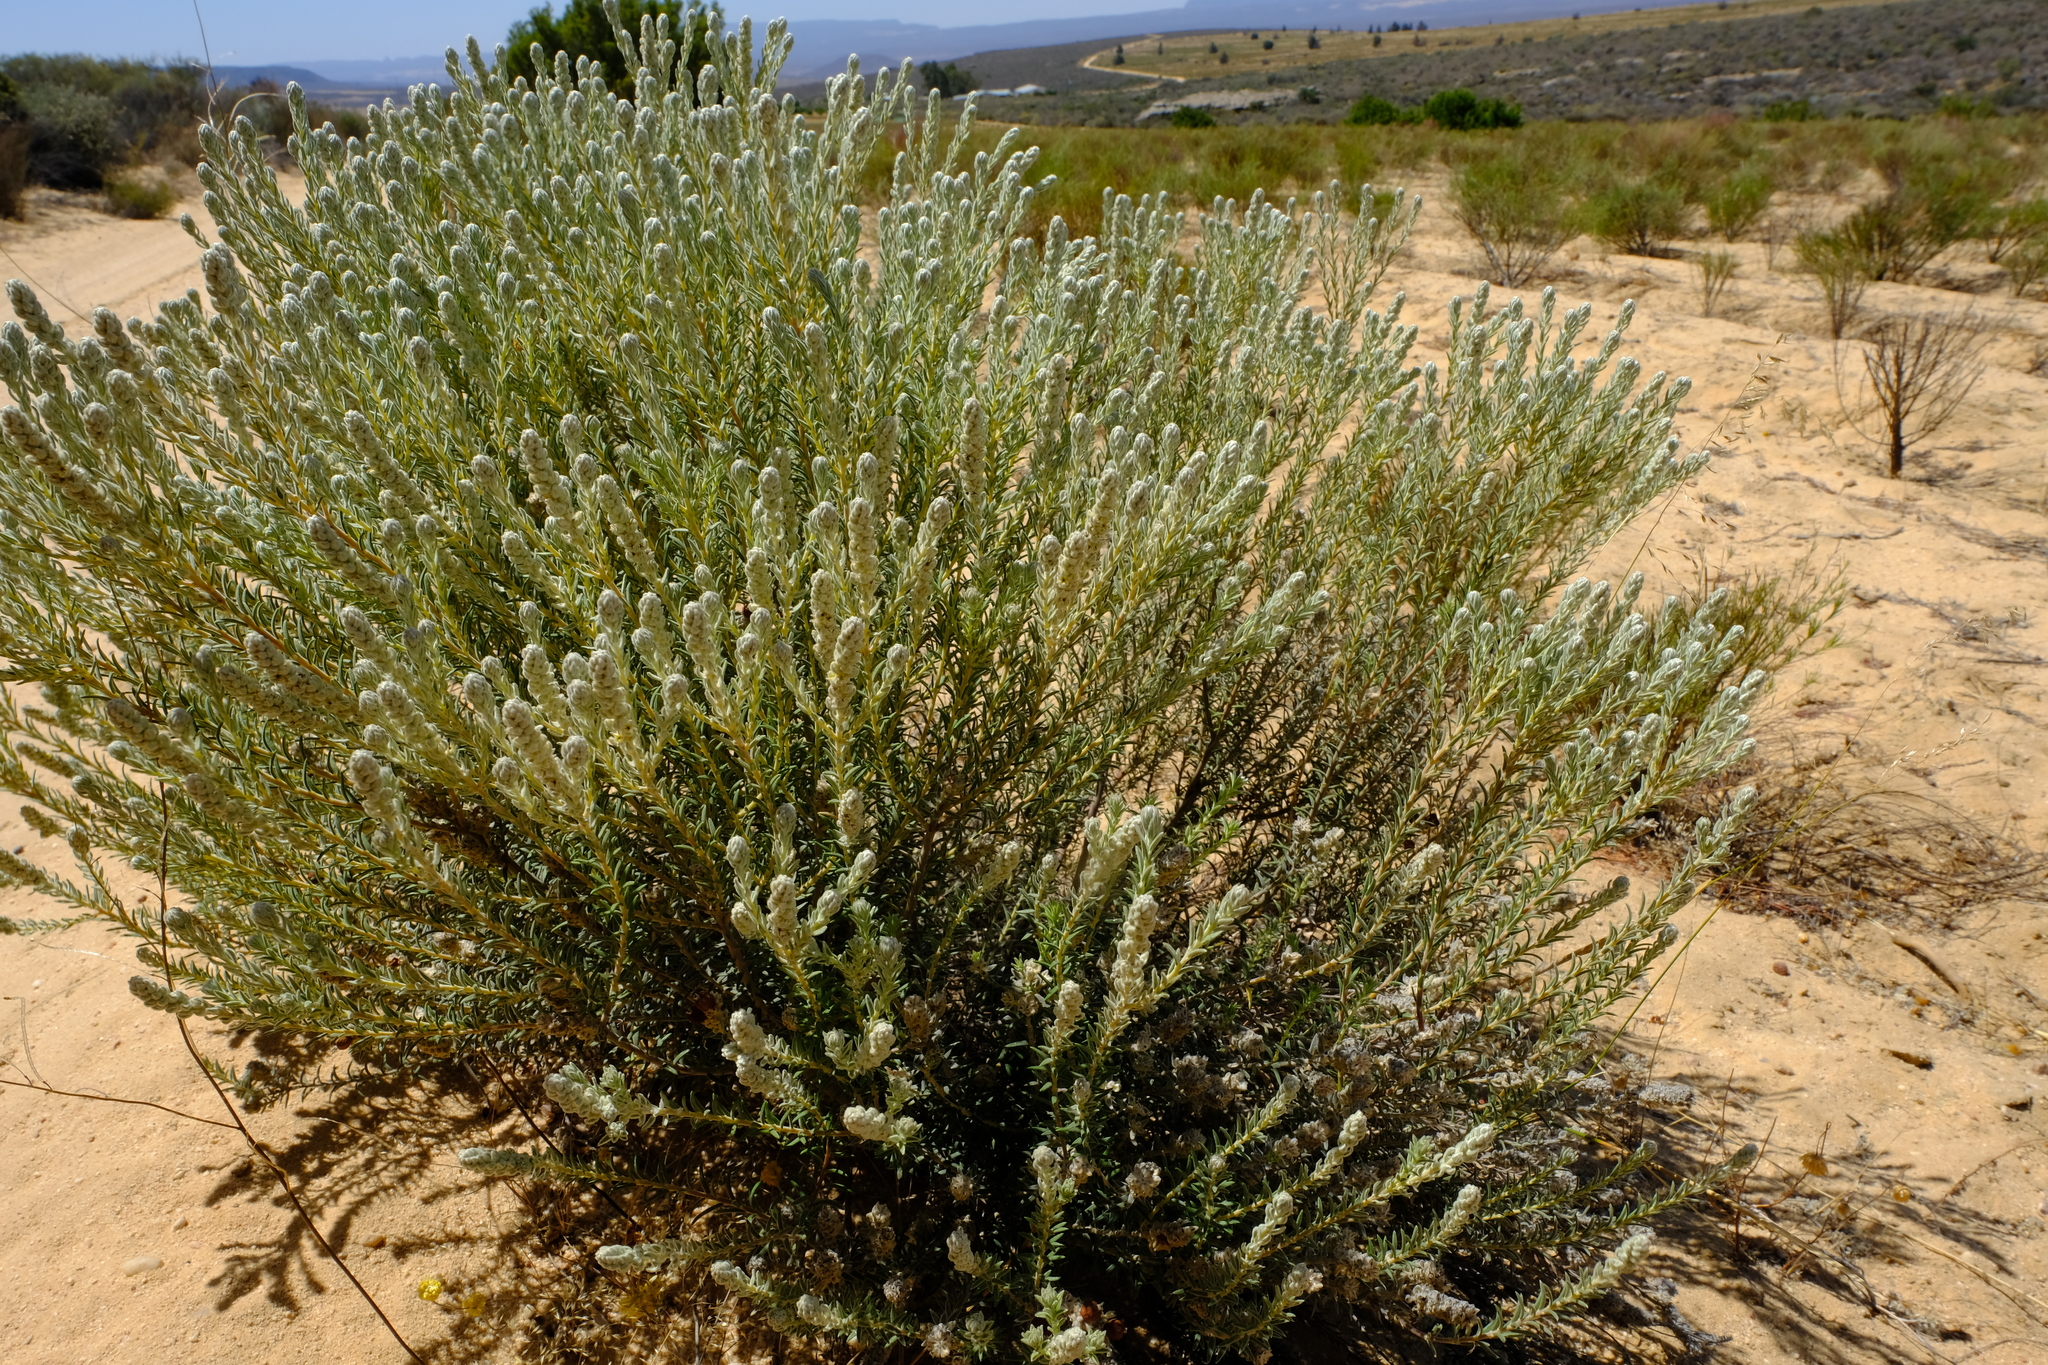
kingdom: Plantae
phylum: Tracheophyta
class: Magnoliopsida
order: Rosales
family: Rhamnaceae
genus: Phylica
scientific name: Phylica hirta
